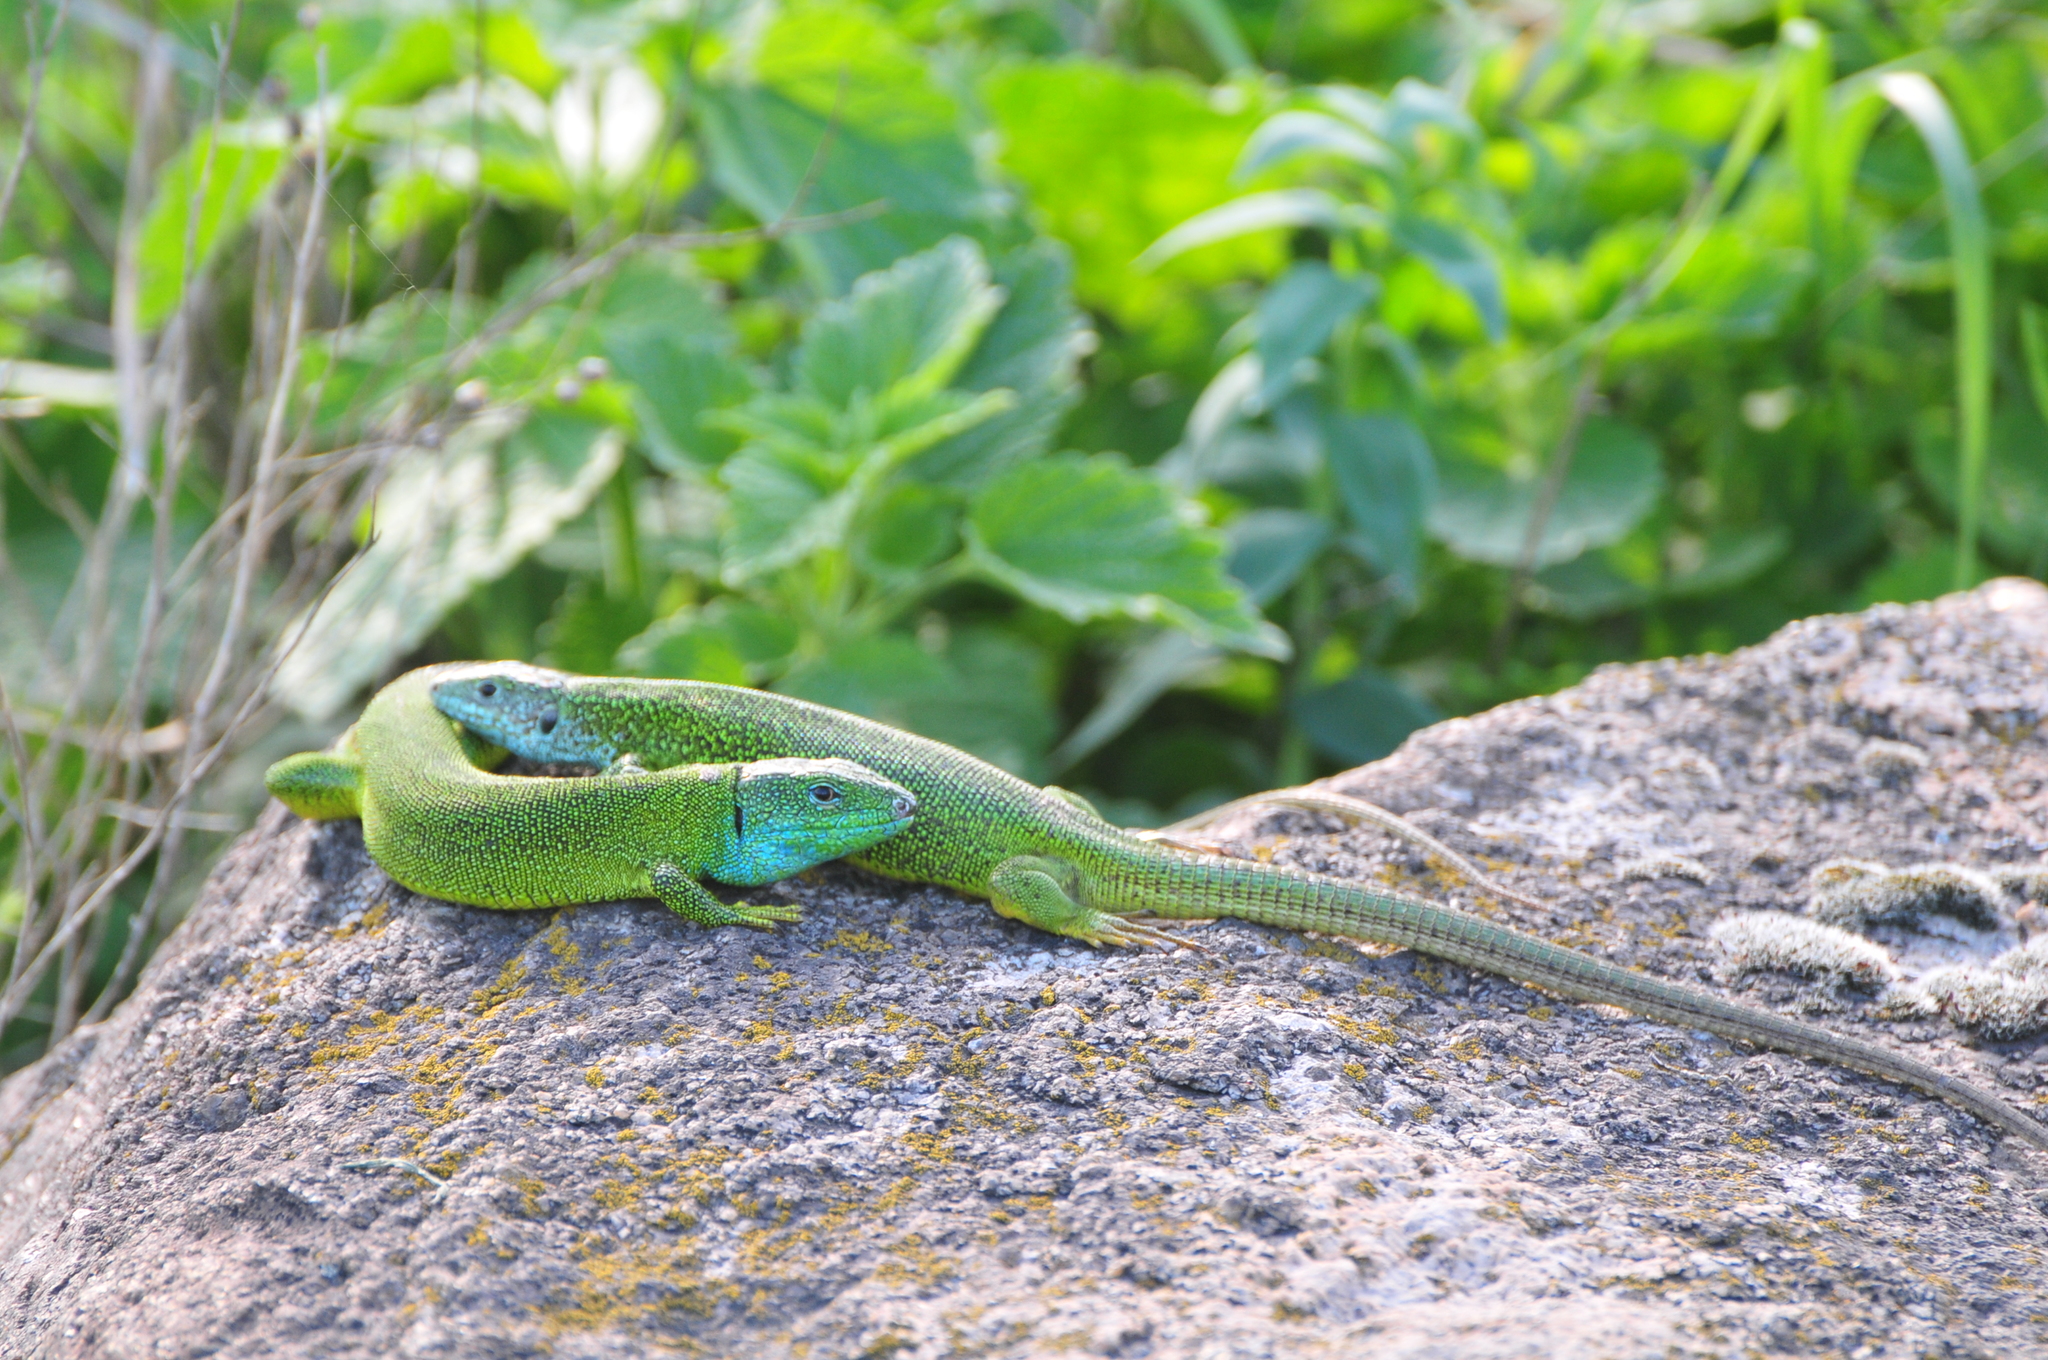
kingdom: Animalia
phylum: Chordata
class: Squamata
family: Lacertidae
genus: Lacerta
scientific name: Lacerta viridis
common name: European green lizard
